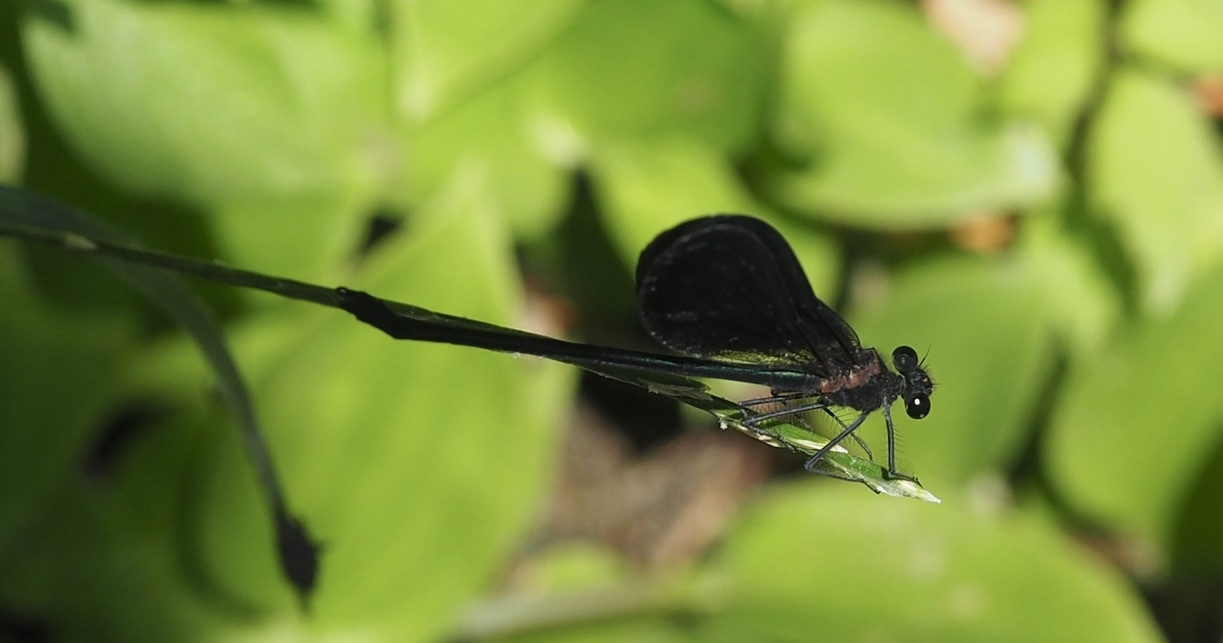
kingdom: Animalia
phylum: Arthropoda
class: Insecta
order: Odonata
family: Calopterygidae
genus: Calopteryx
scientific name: Calopteryx haemorrhoidalis
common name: Copper demoiselle
